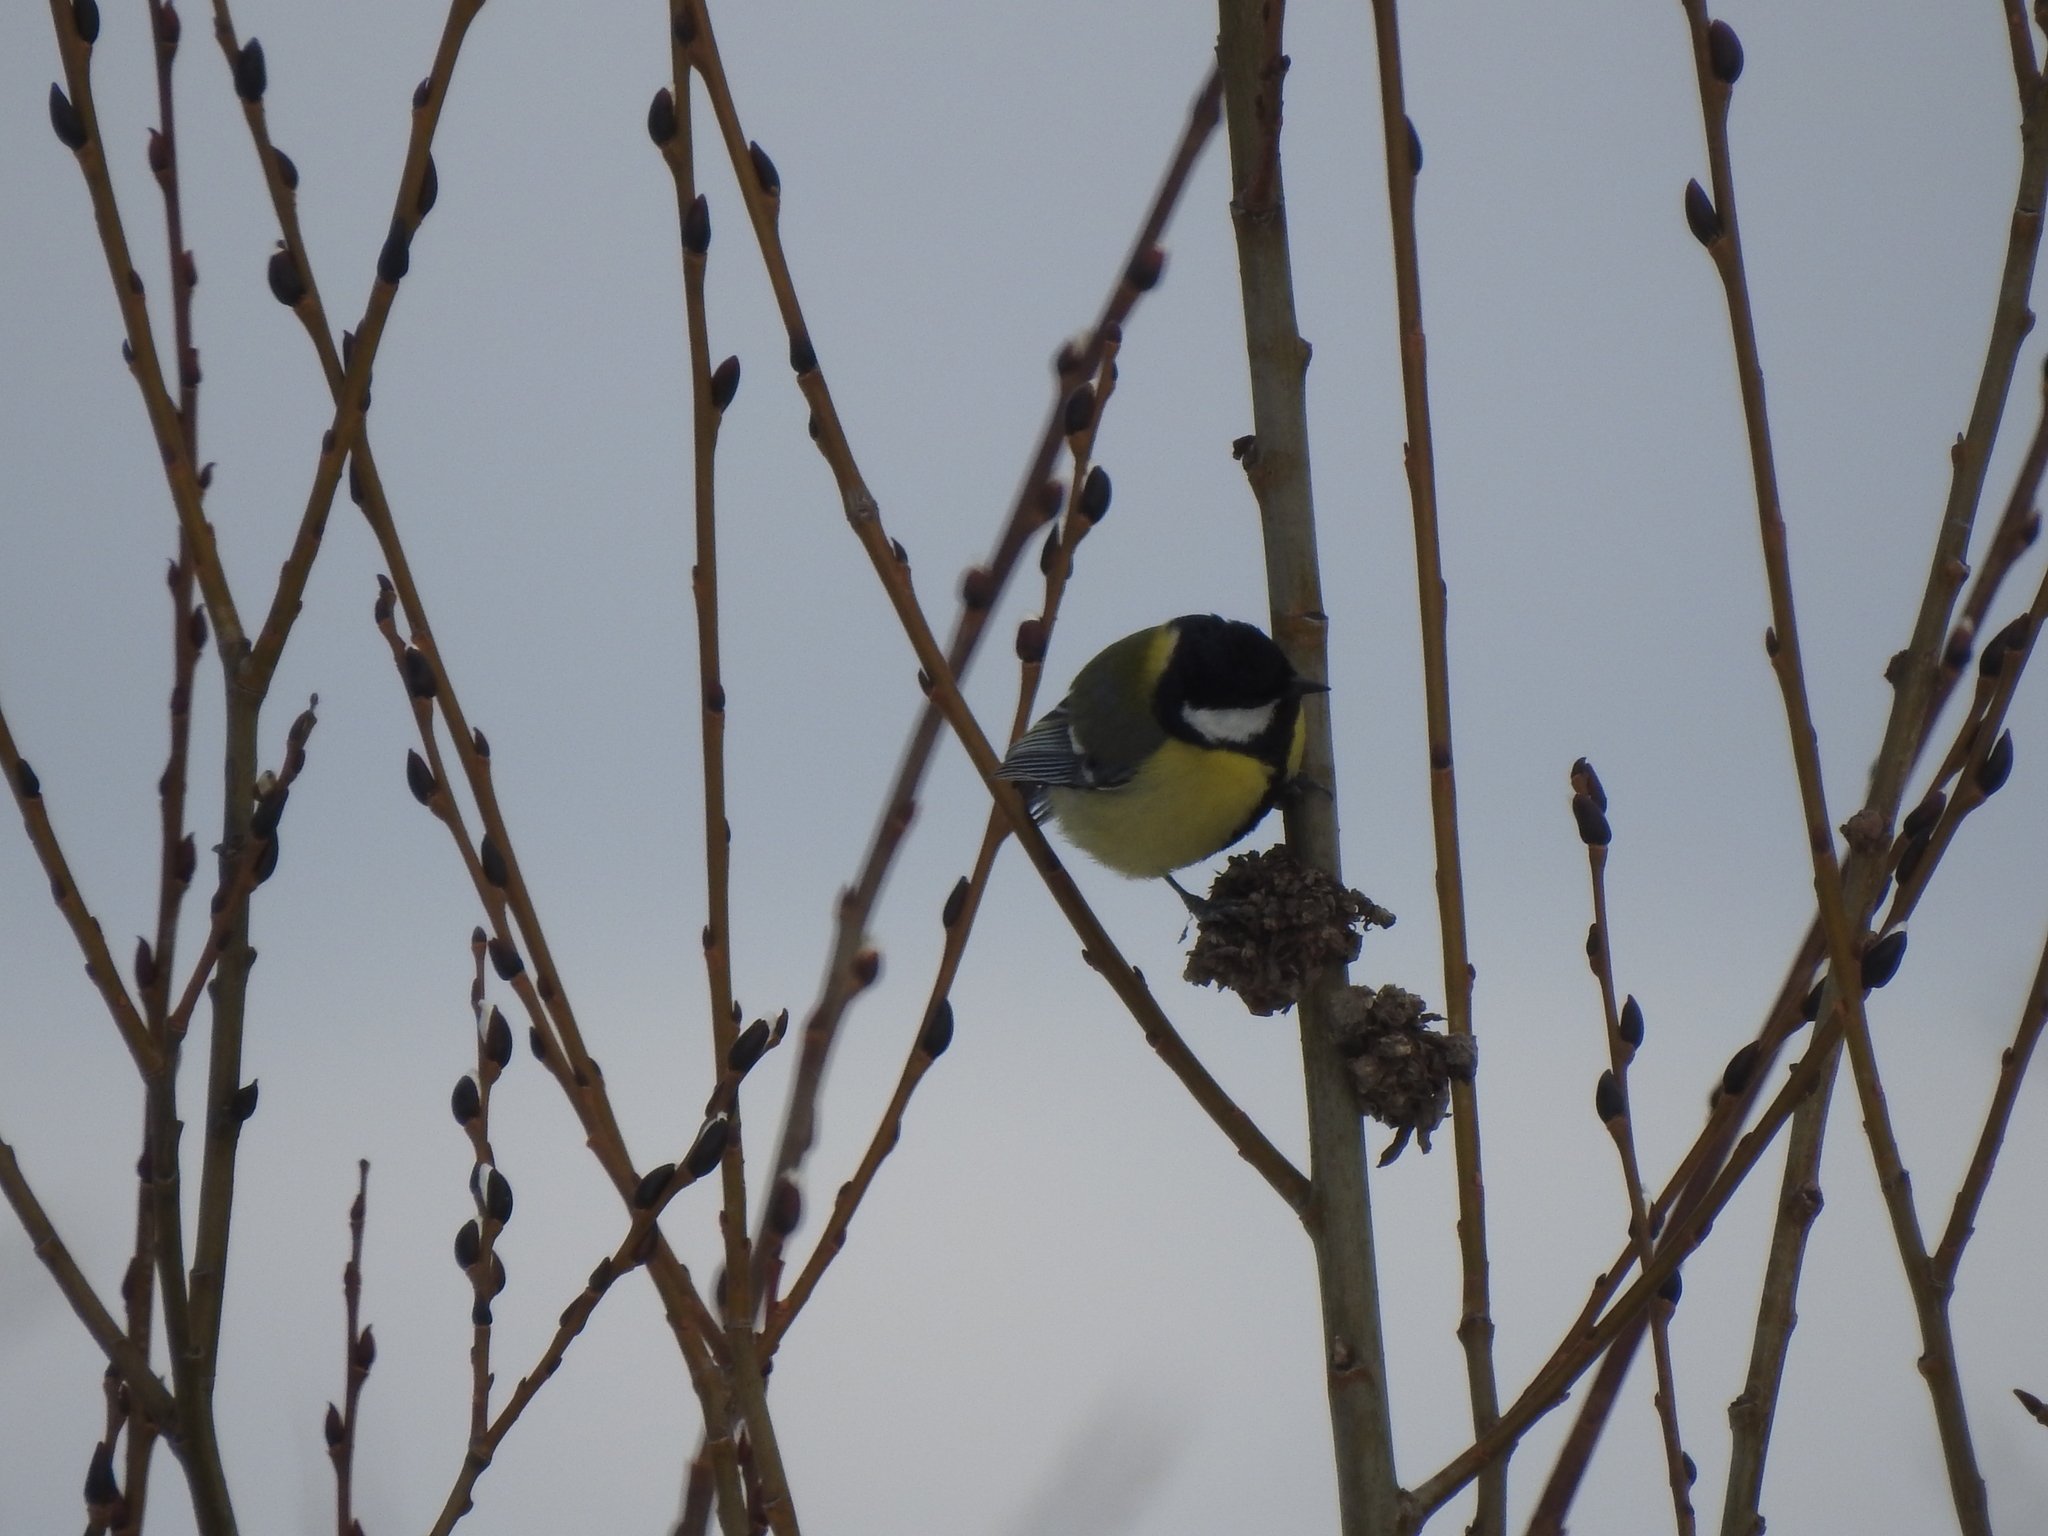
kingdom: Animalia
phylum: Chordata
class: Aves
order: Passeriformes
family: Paridae
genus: Parus
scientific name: Parus major
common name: Great tit
